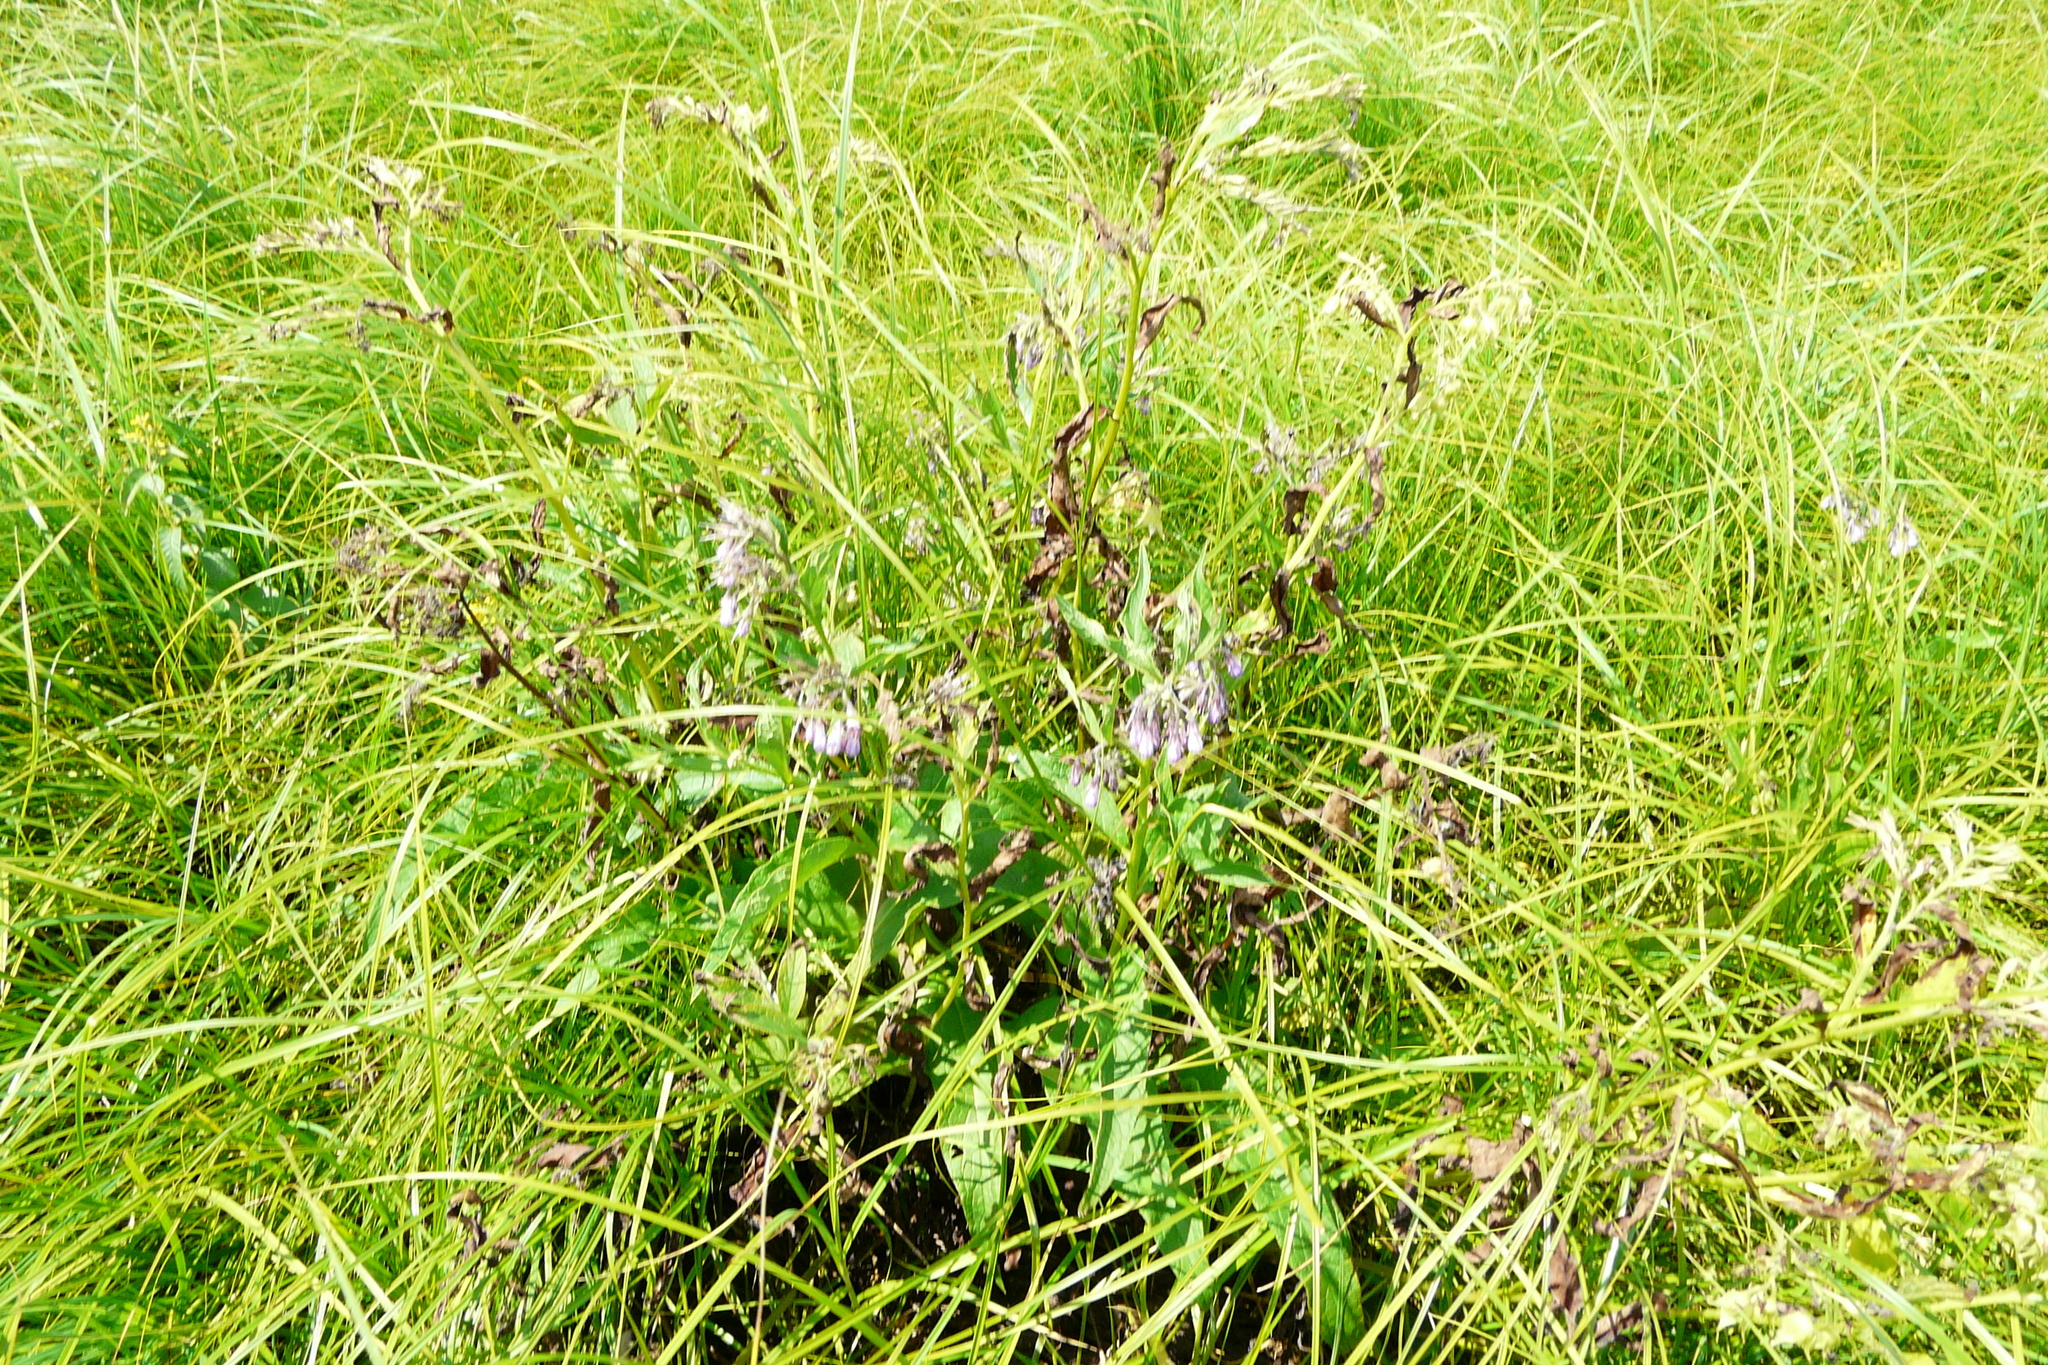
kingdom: Plantae
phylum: Tracheophyta
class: Magnoliopsida
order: Boraginales
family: Boraginaceae
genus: Symphytum
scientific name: Symphytum officinale
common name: Common comfrey
